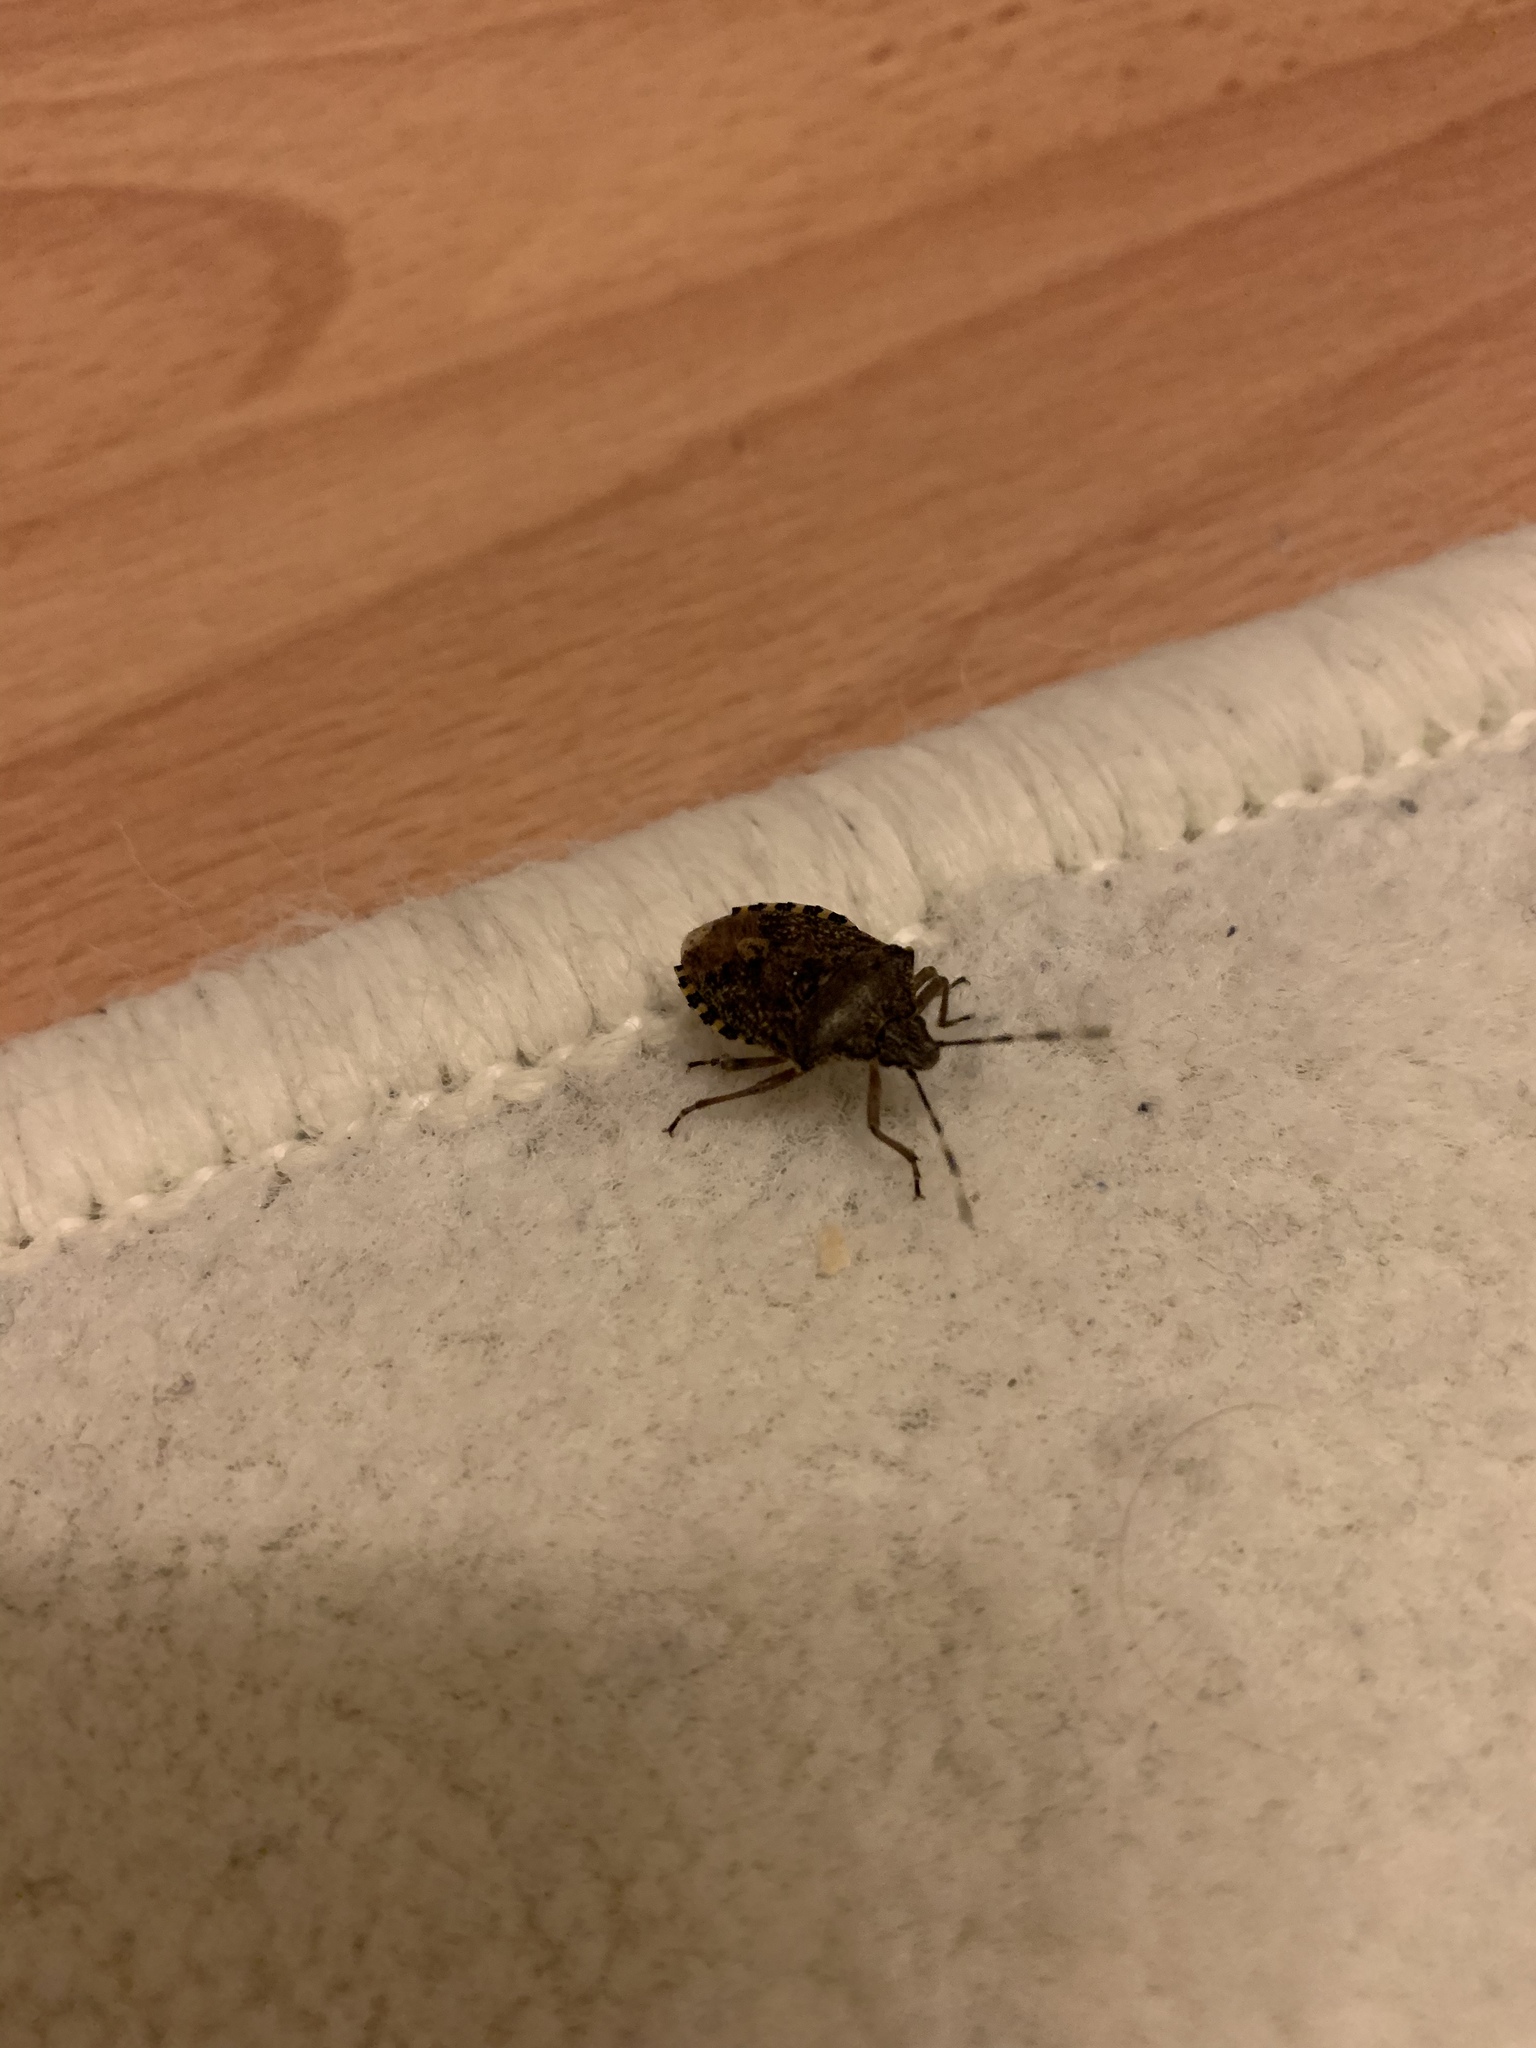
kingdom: Animalia
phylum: Arthropoda
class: Insecta
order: Hemiptera
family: Pentatomidae
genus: Rhaphigaster
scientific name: Rhaphigaster nebulosa
